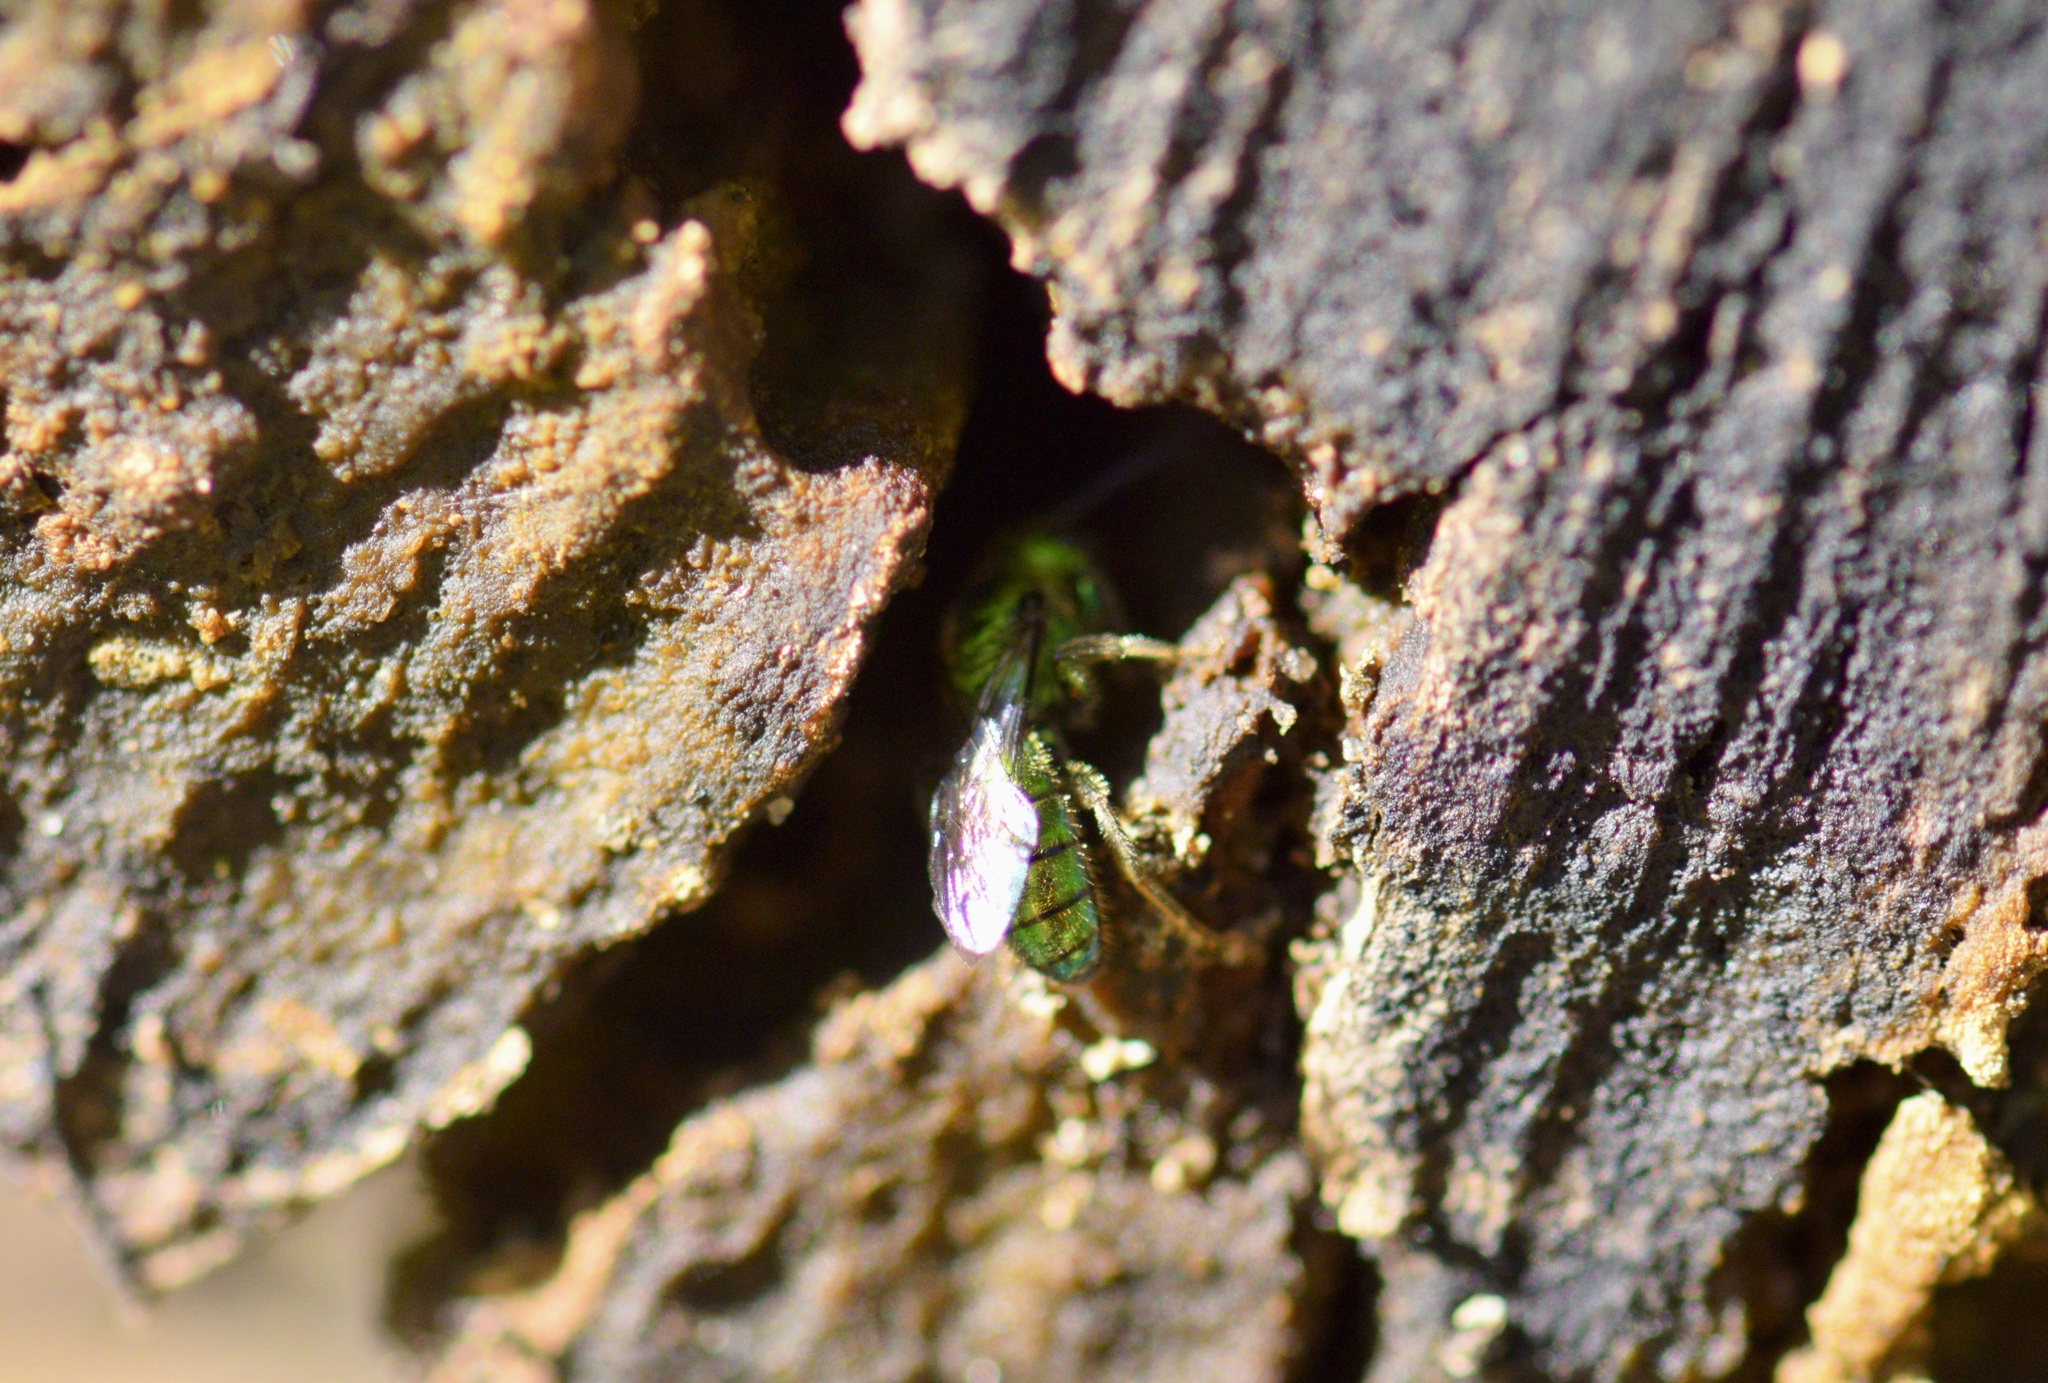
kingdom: Animalia
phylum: Arthropoda
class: Insecta
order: Hymenoptera
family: Halictidae
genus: Augochlora
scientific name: Augochlora pura
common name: Pure green sweat bee
